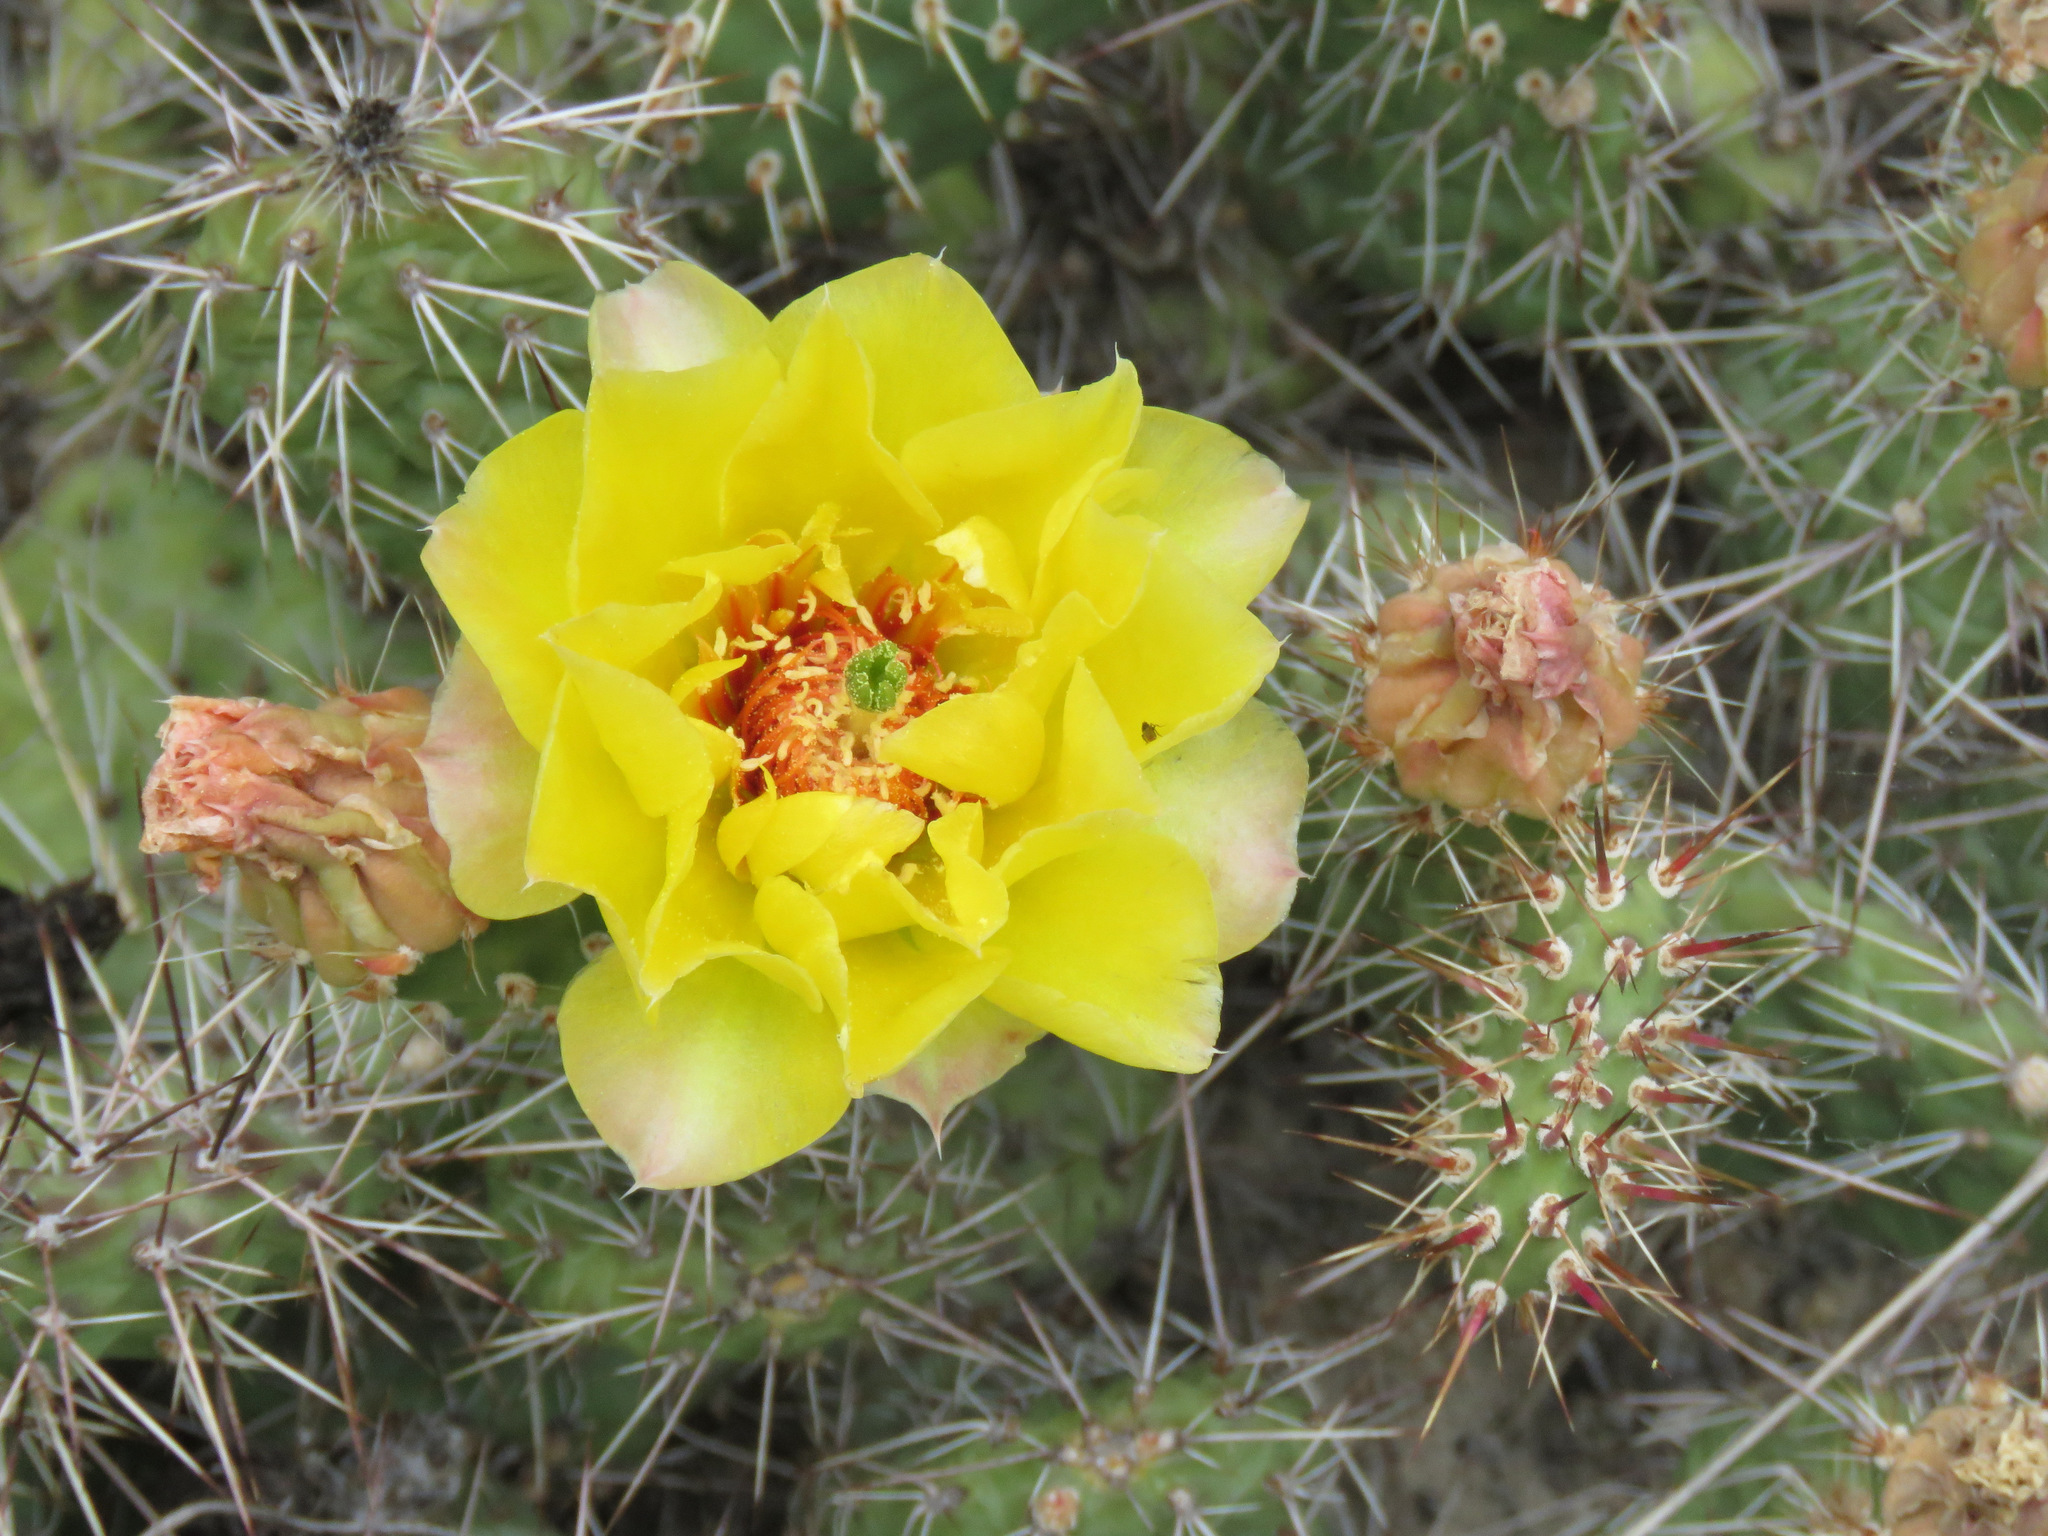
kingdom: Plantae
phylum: Tracheophyta
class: Magnoliopsida
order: Caryophyllales
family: Cactaceae
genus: Opuntia
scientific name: Opuntia fragilis
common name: Brittle cactus
